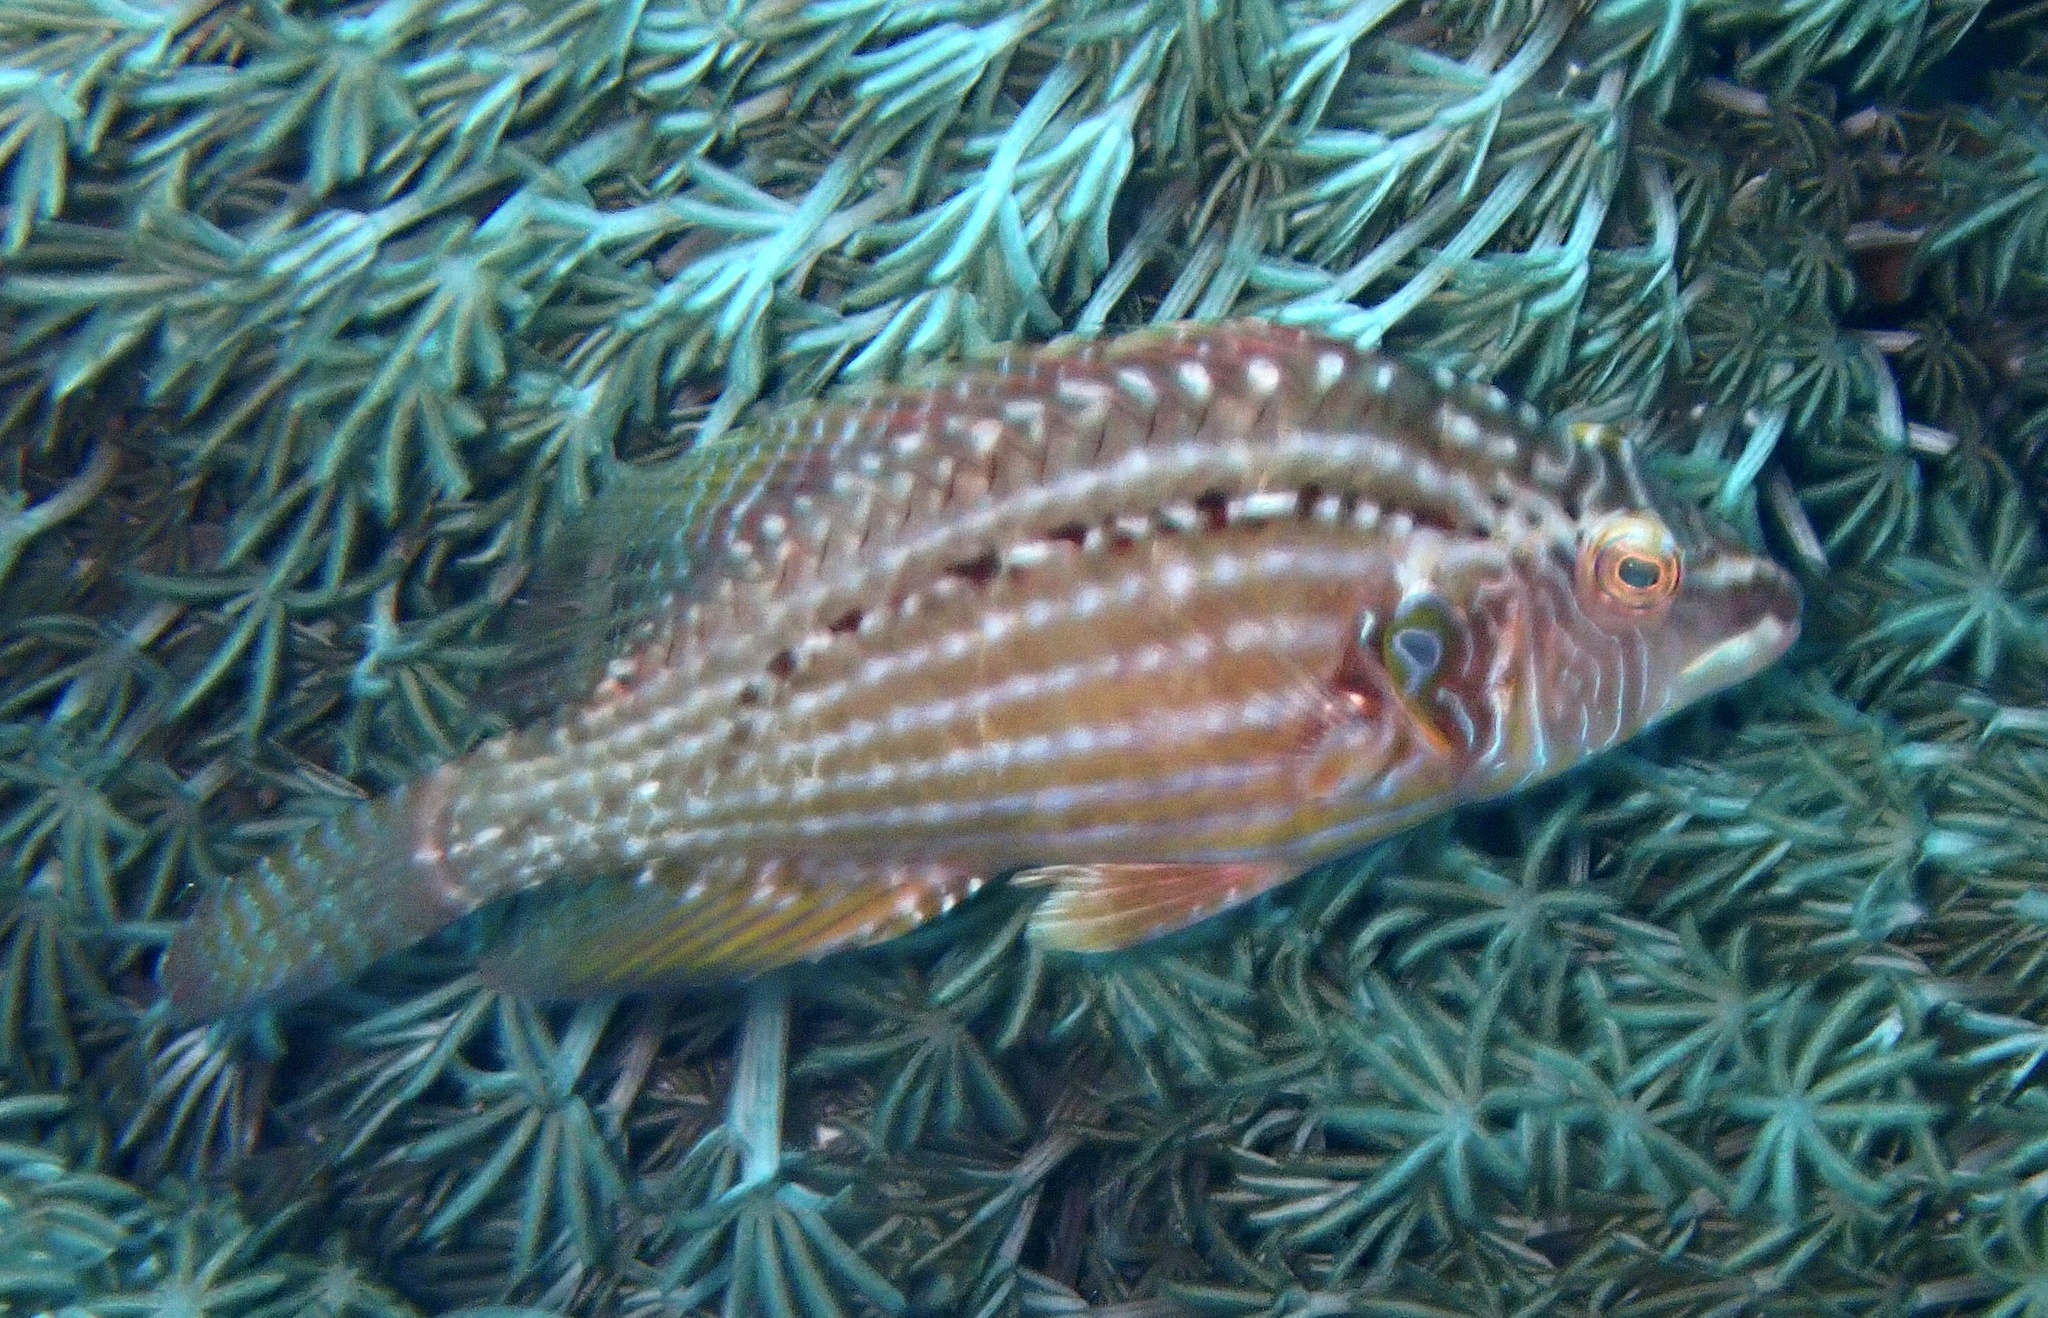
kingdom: Animalia
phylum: Chordata
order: Perciformes
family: Labridae
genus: Pteragogus
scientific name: Pteragogus enneacanthus
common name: Cockerel wrasse
